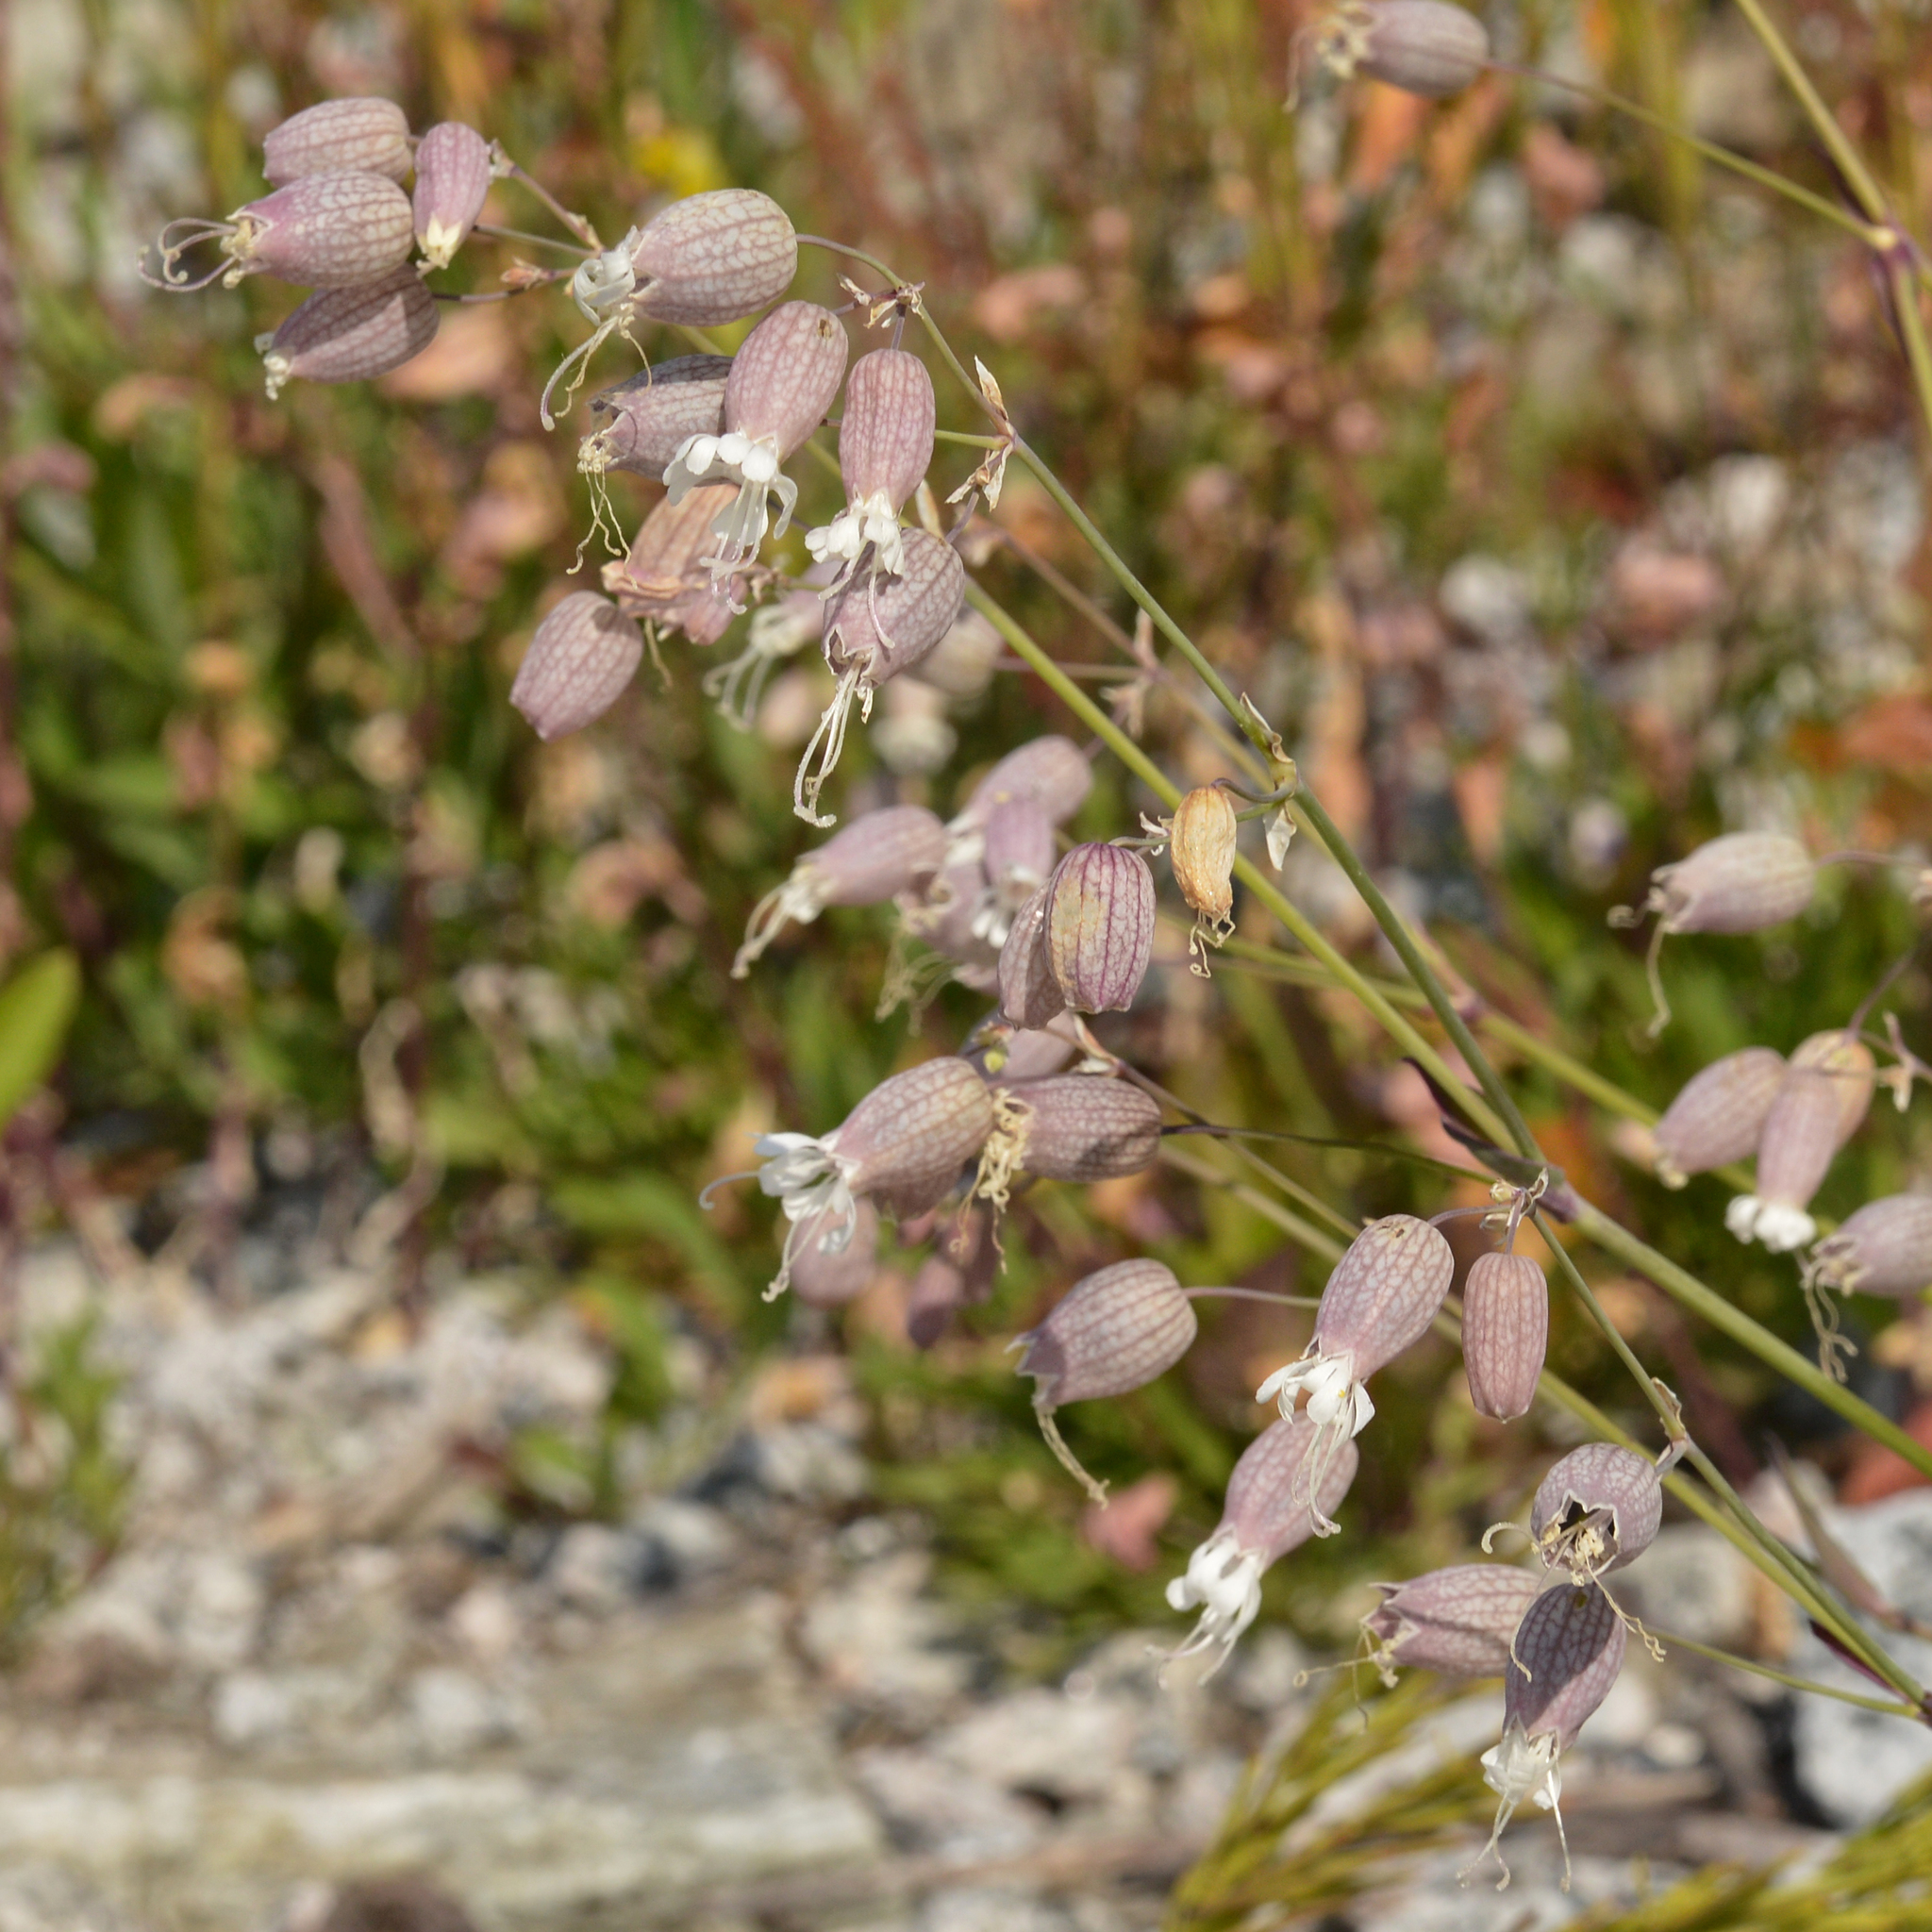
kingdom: Plantae
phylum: Tracheophyta
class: Magnoliopsida
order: Caryophyllales
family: Caryophyllaceae
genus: Silene
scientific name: Silene vulgaris
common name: Bladder campion
